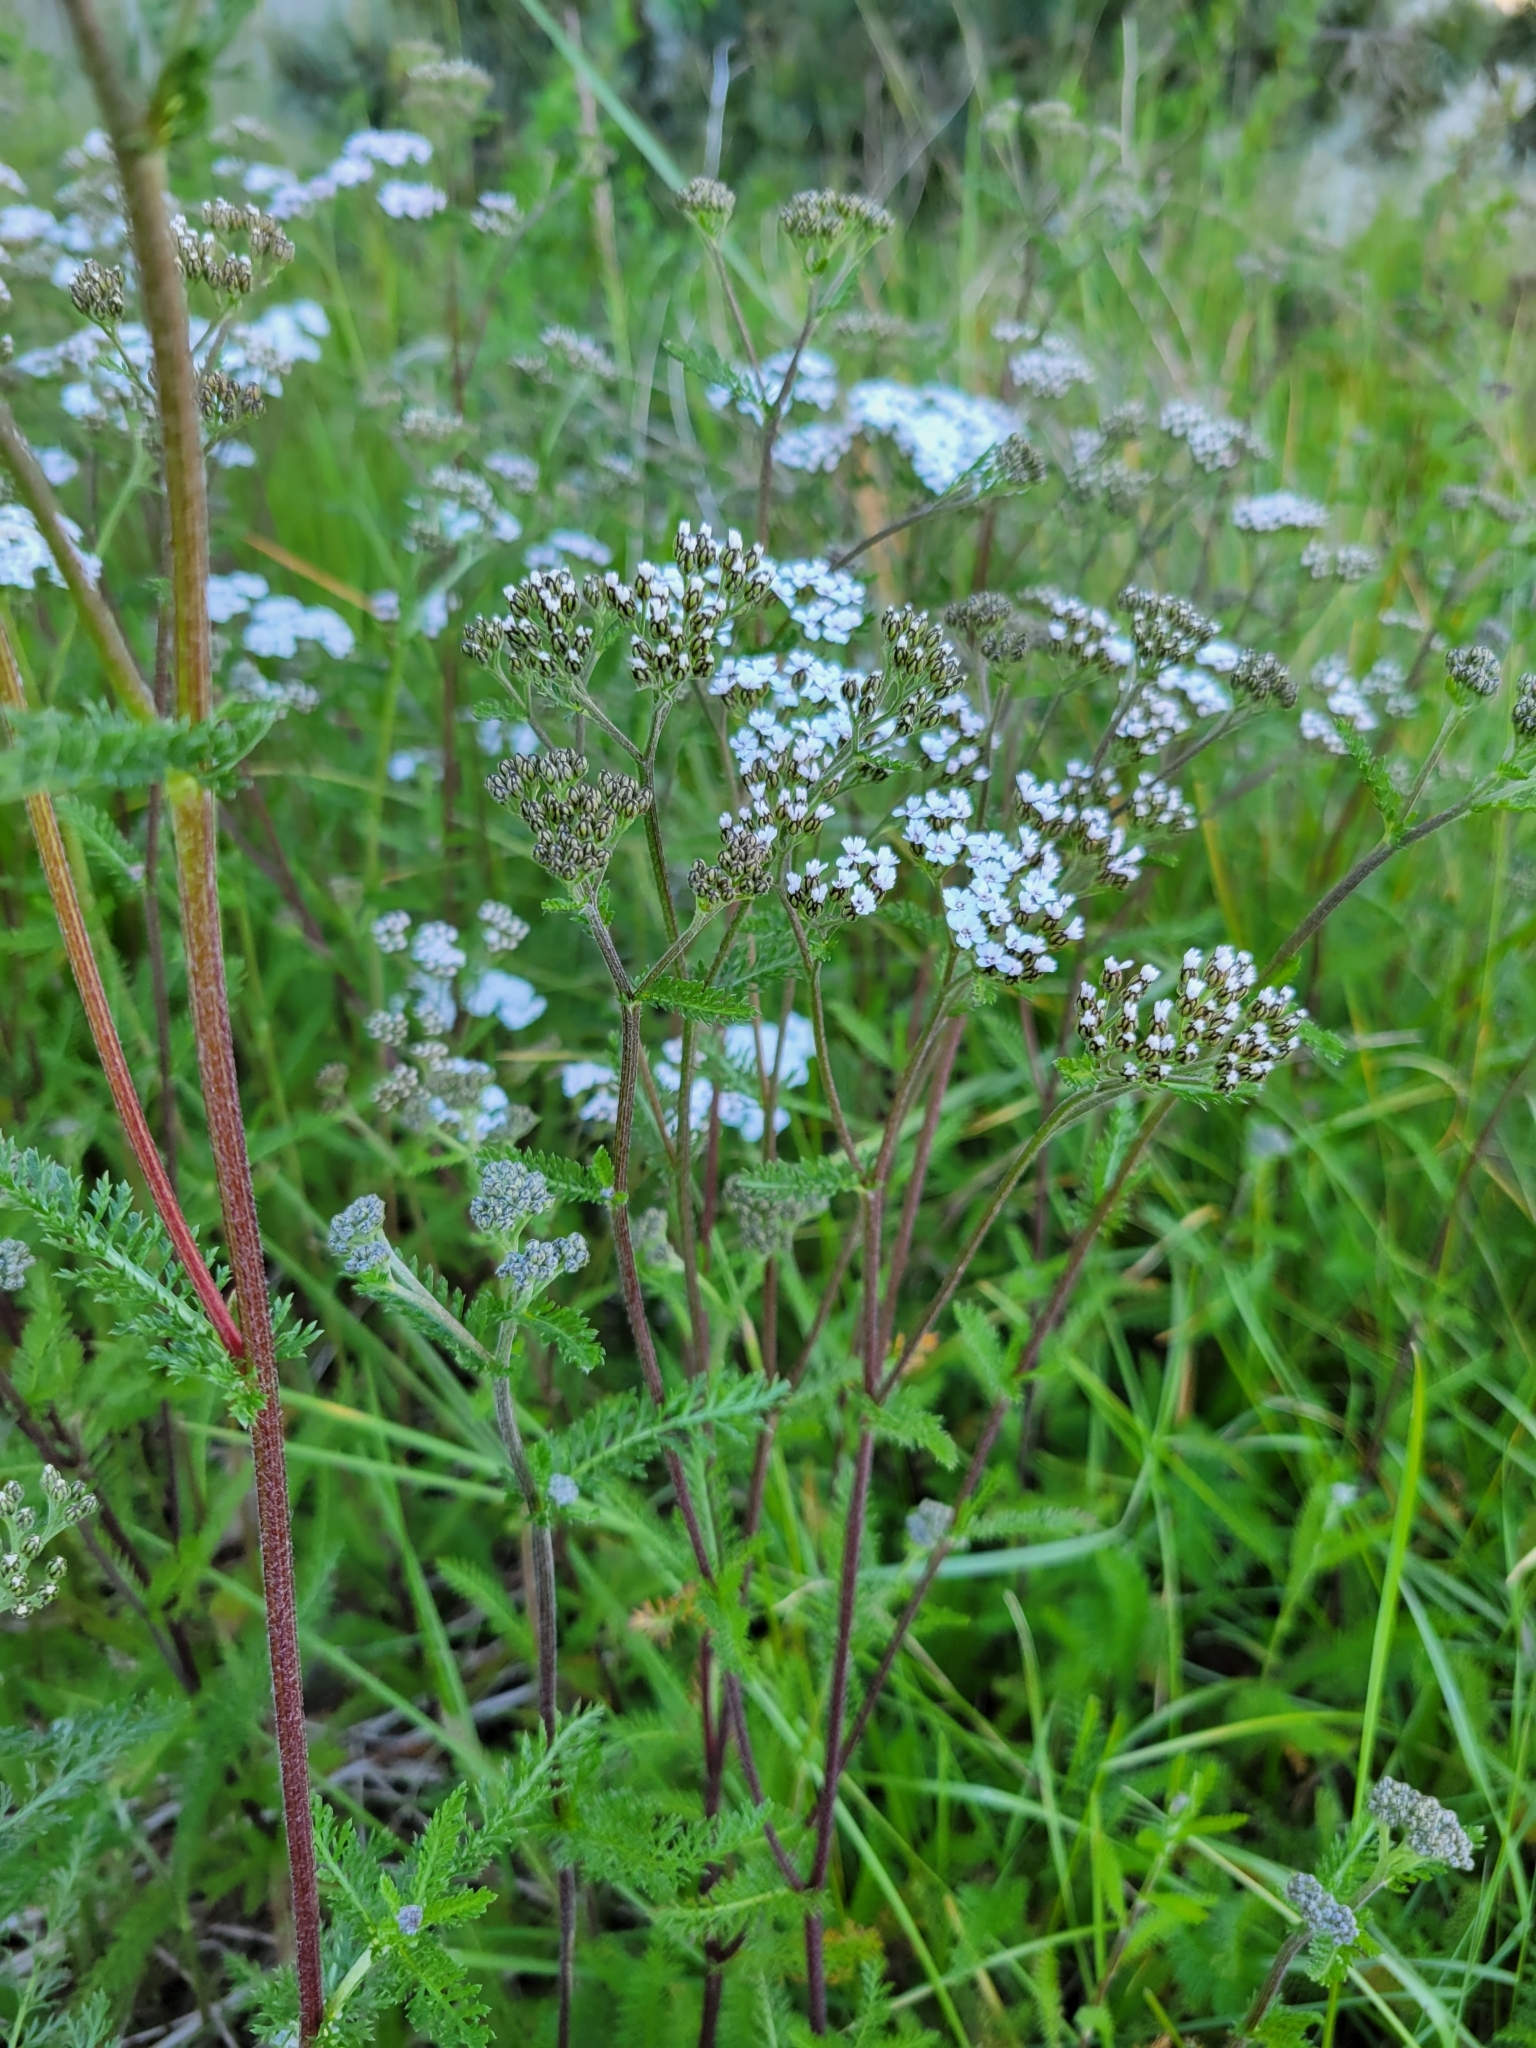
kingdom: Plantae
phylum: Tracheophyta
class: Magnoliopsida
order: Asterales
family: Asteraceae
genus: Achillea
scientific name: Achillea millefolium
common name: Yarrow
